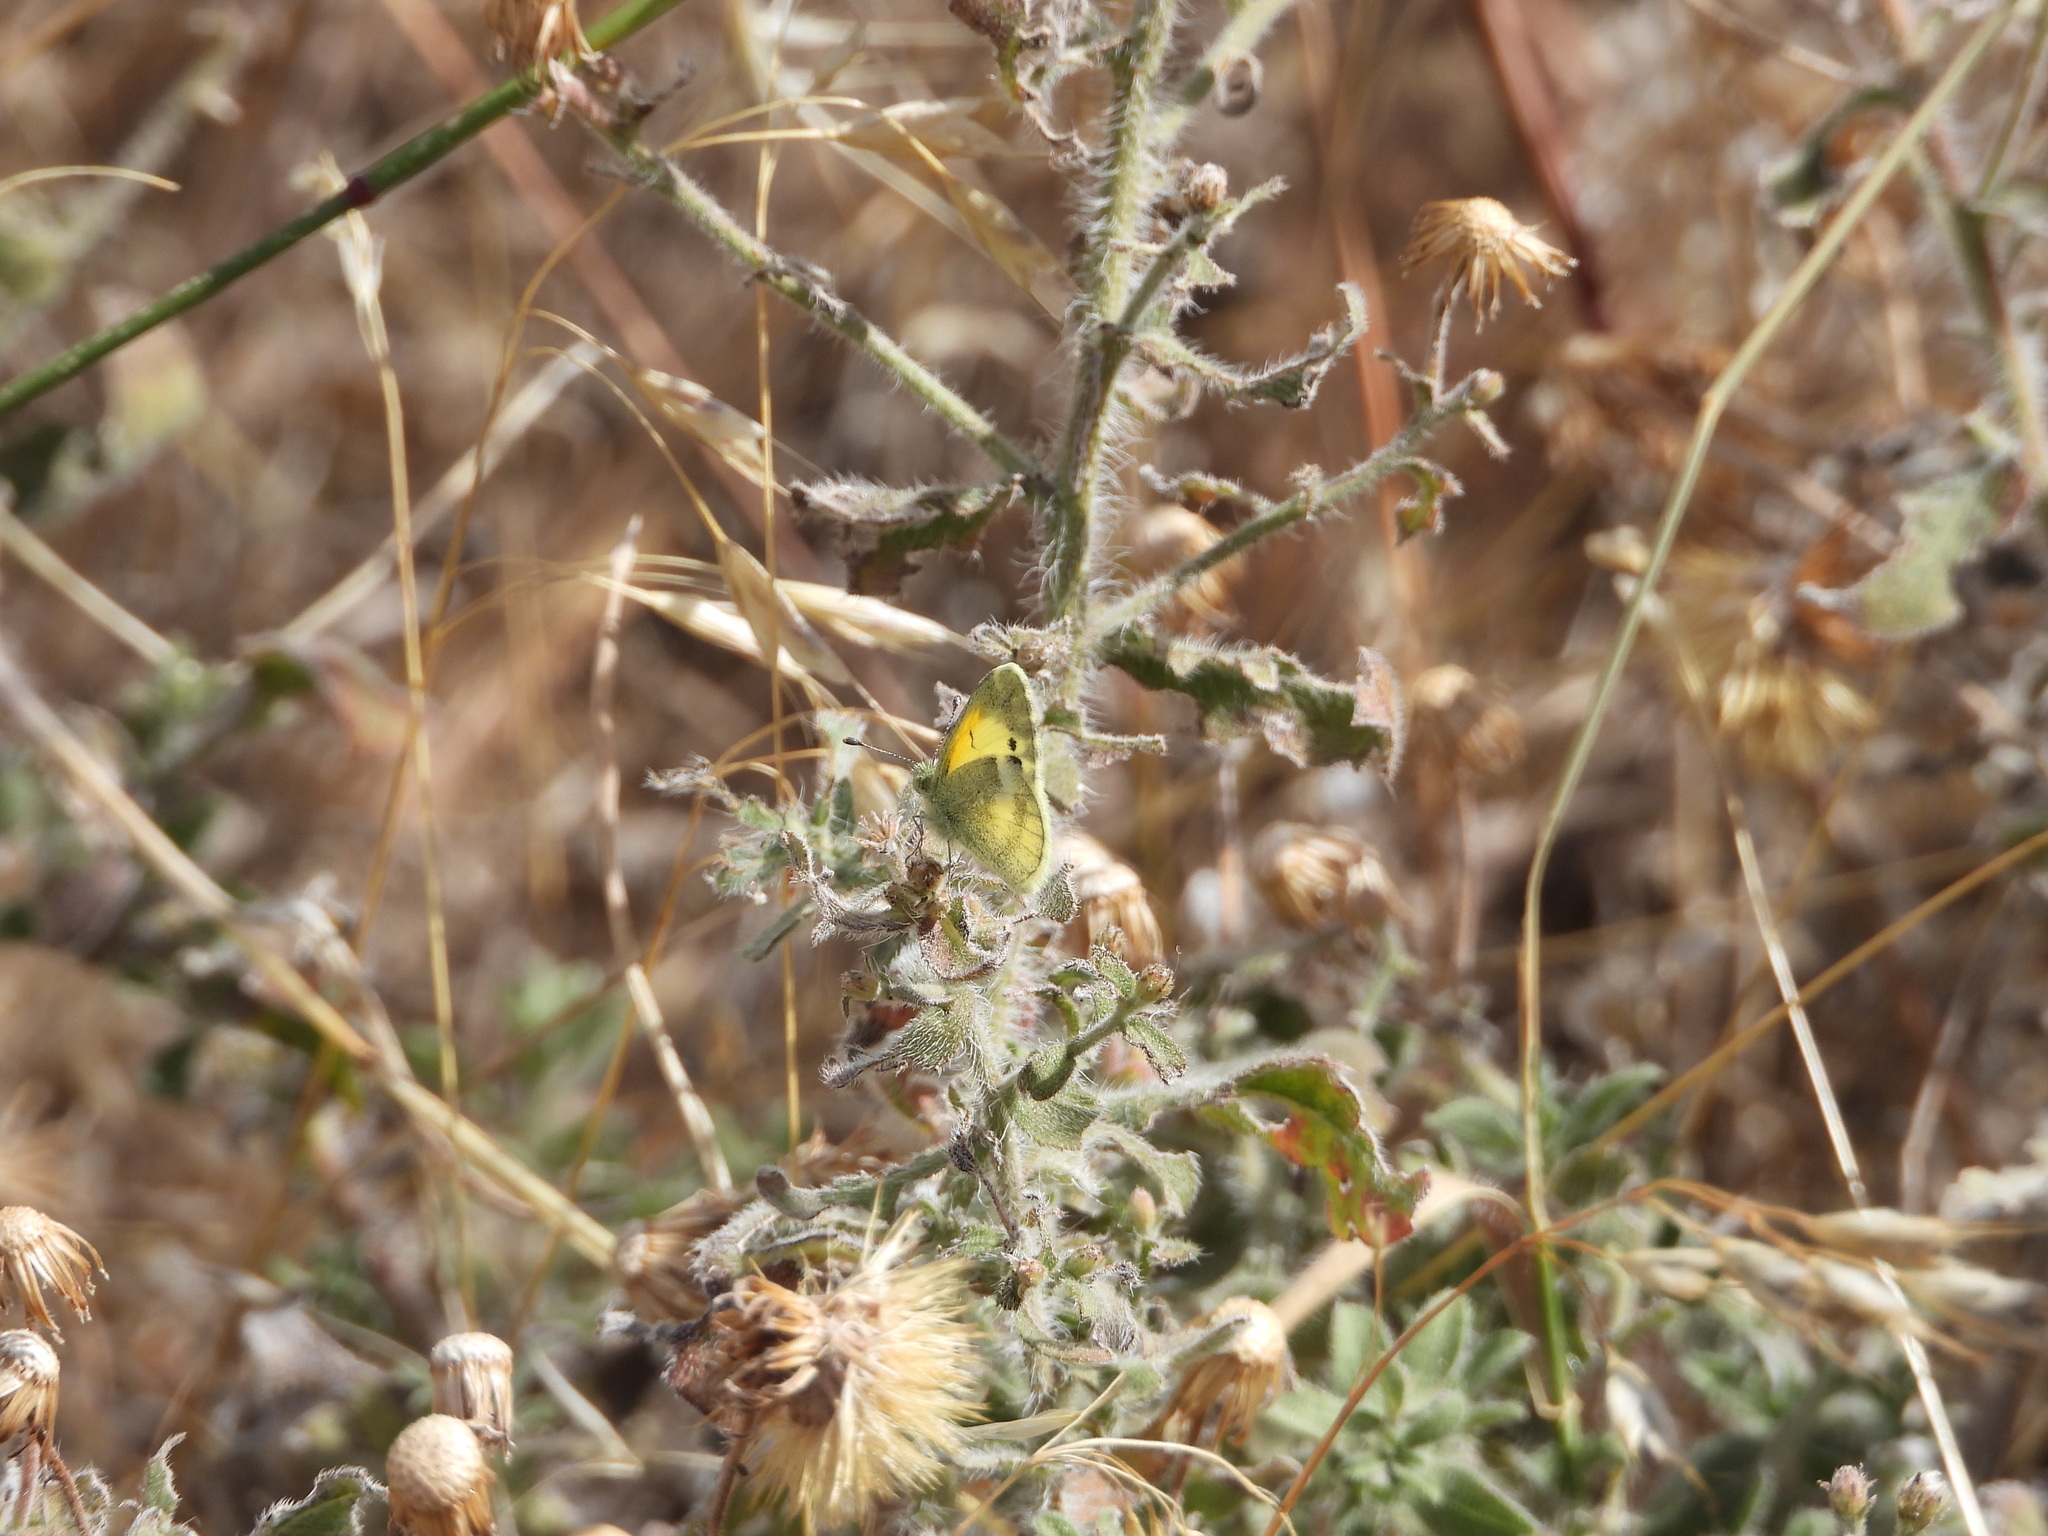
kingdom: Animalia
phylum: Arthropoda
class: Insecta
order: Lepidoptera
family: Pieridae
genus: Nathalis
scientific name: Nathalis iole
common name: Dainty sulphur
